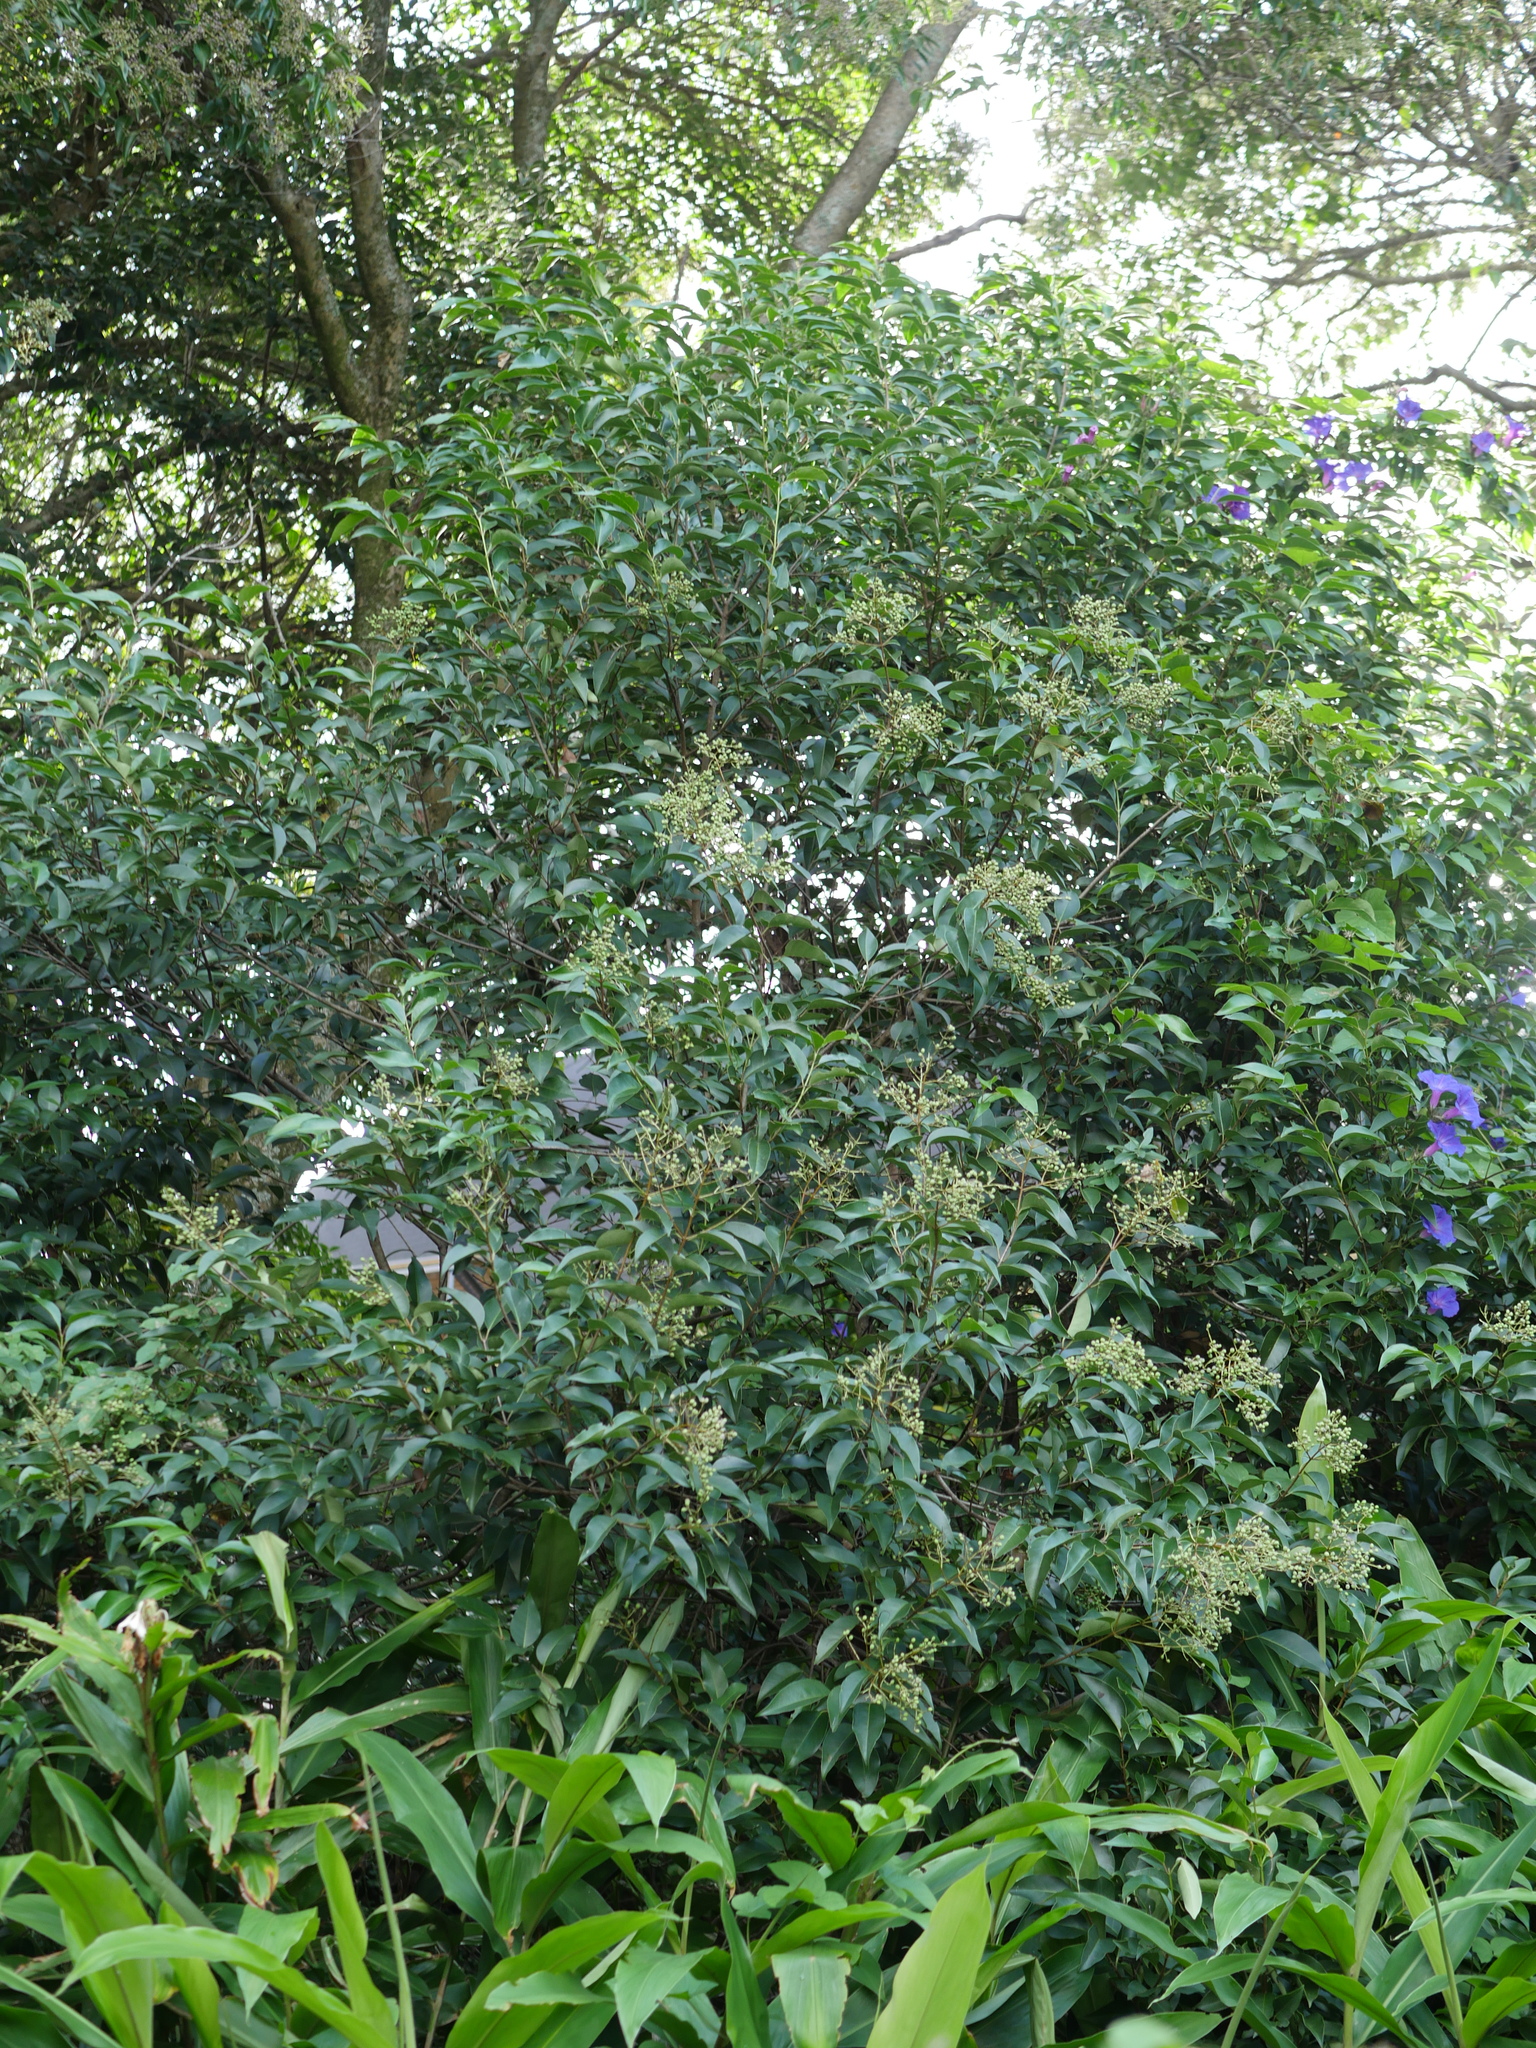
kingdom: Plantae
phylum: Tracheophyta
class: Magnoliopsida
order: Lamiales
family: Oleaceae
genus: Ligustrum
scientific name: Ligustrum lucidum
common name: Glossy privet
